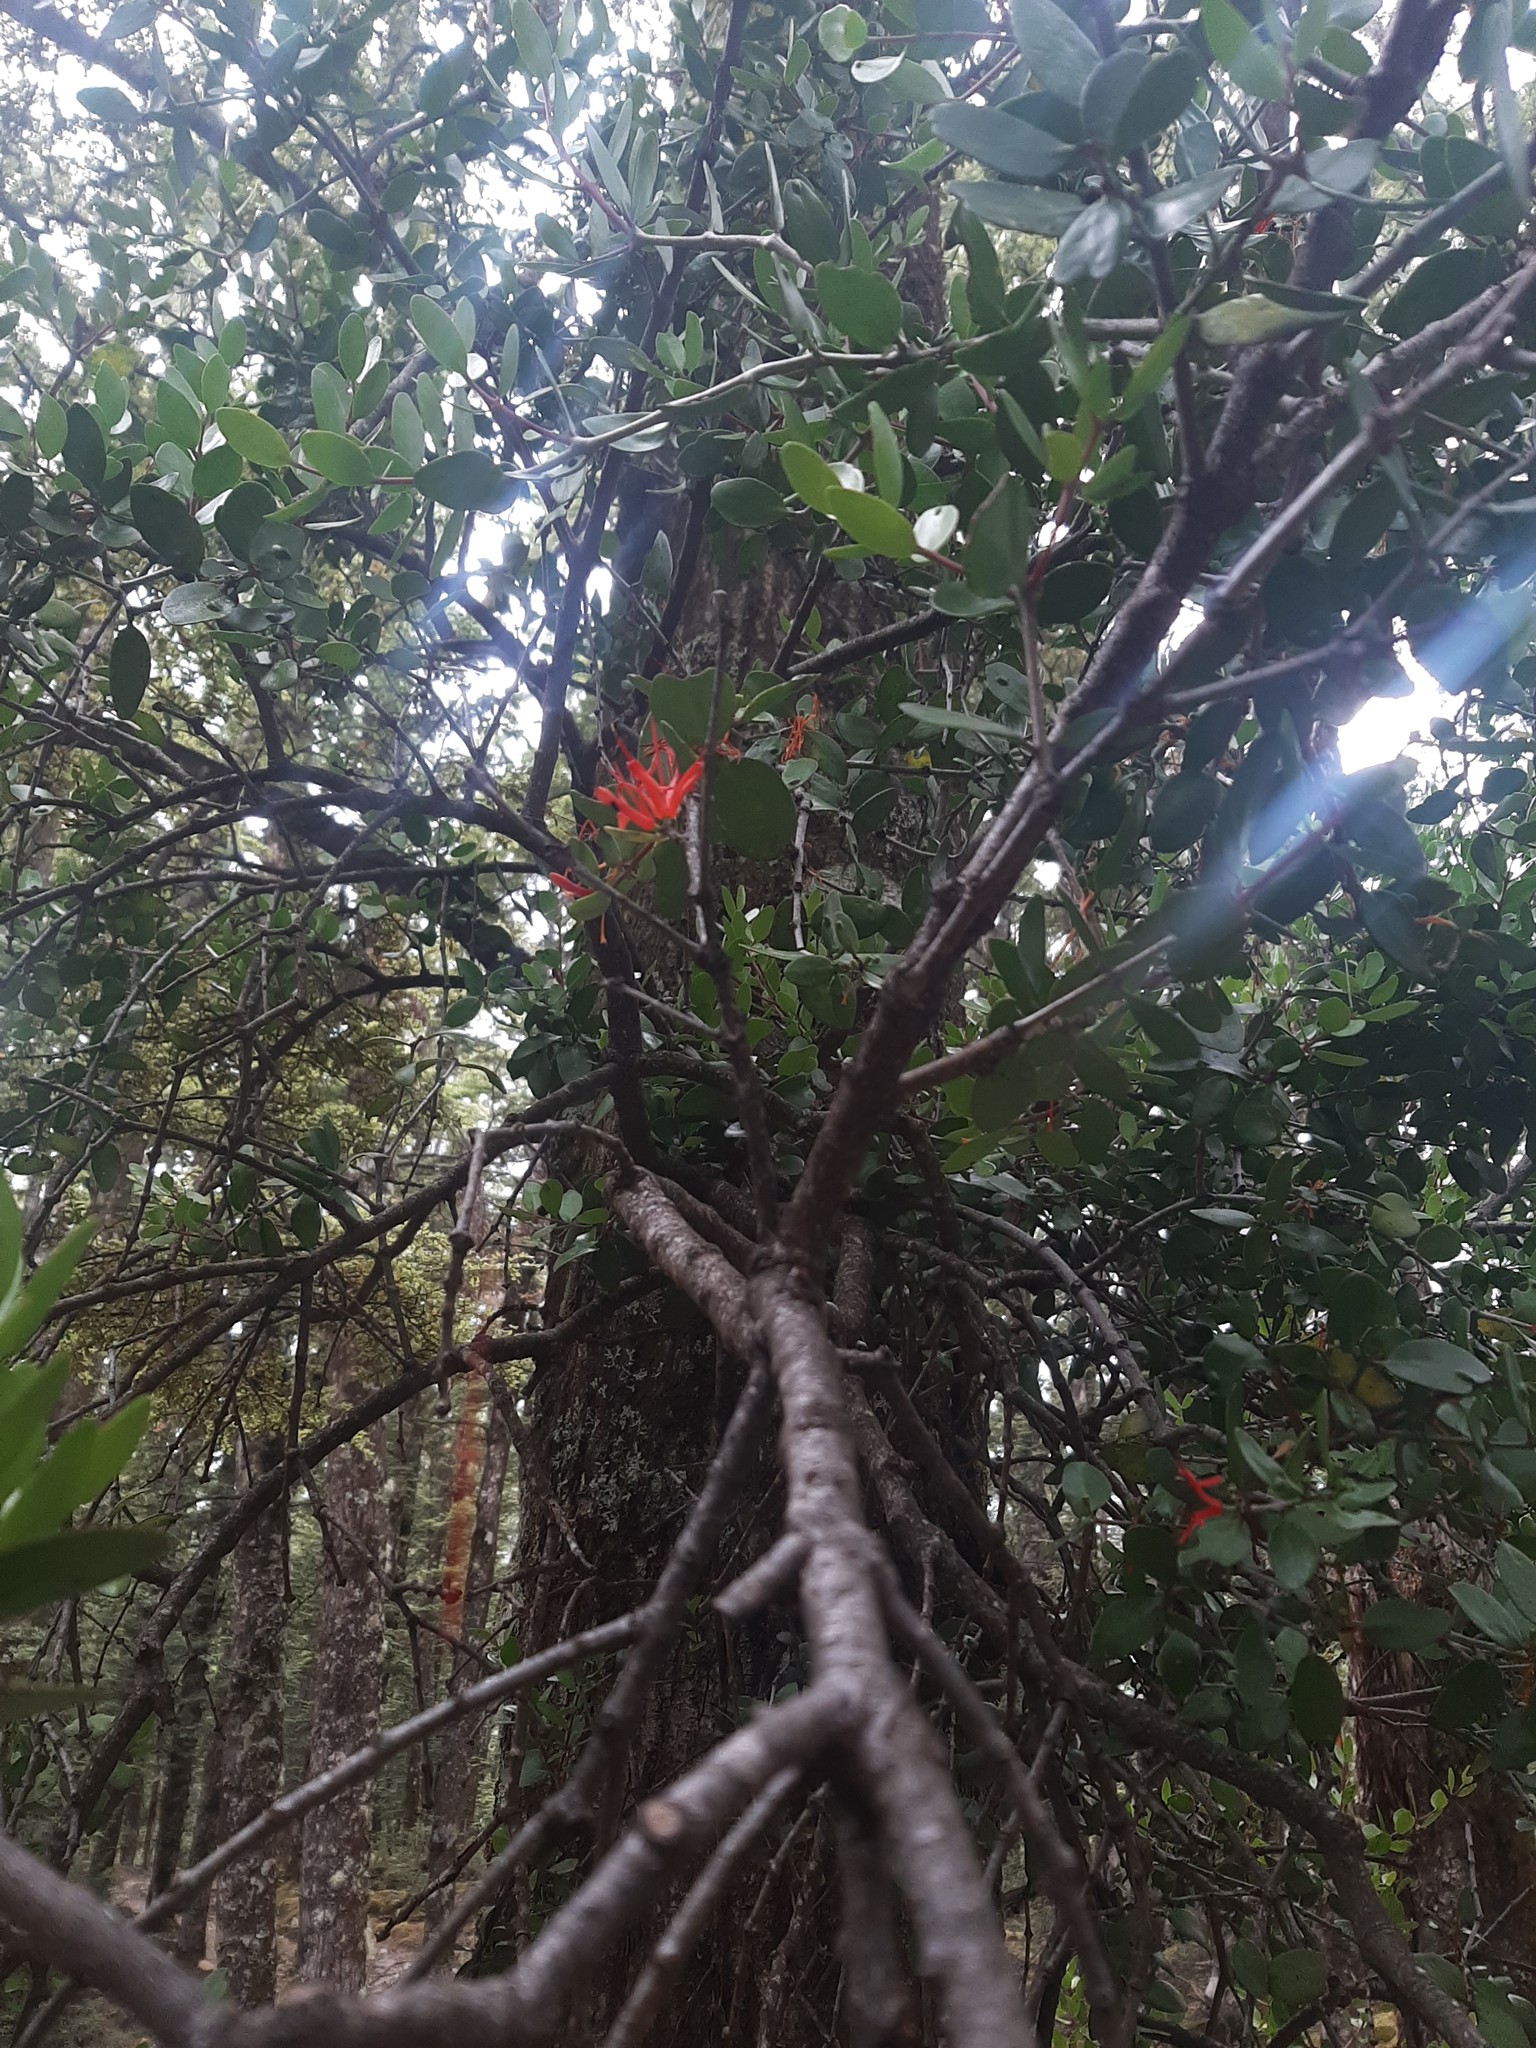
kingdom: Plantae
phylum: Tracheophyta
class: Magnoliopsida
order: Santalales
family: Loranthaceae
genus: Peraxilla
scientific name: Peraxilla tetrapetala
